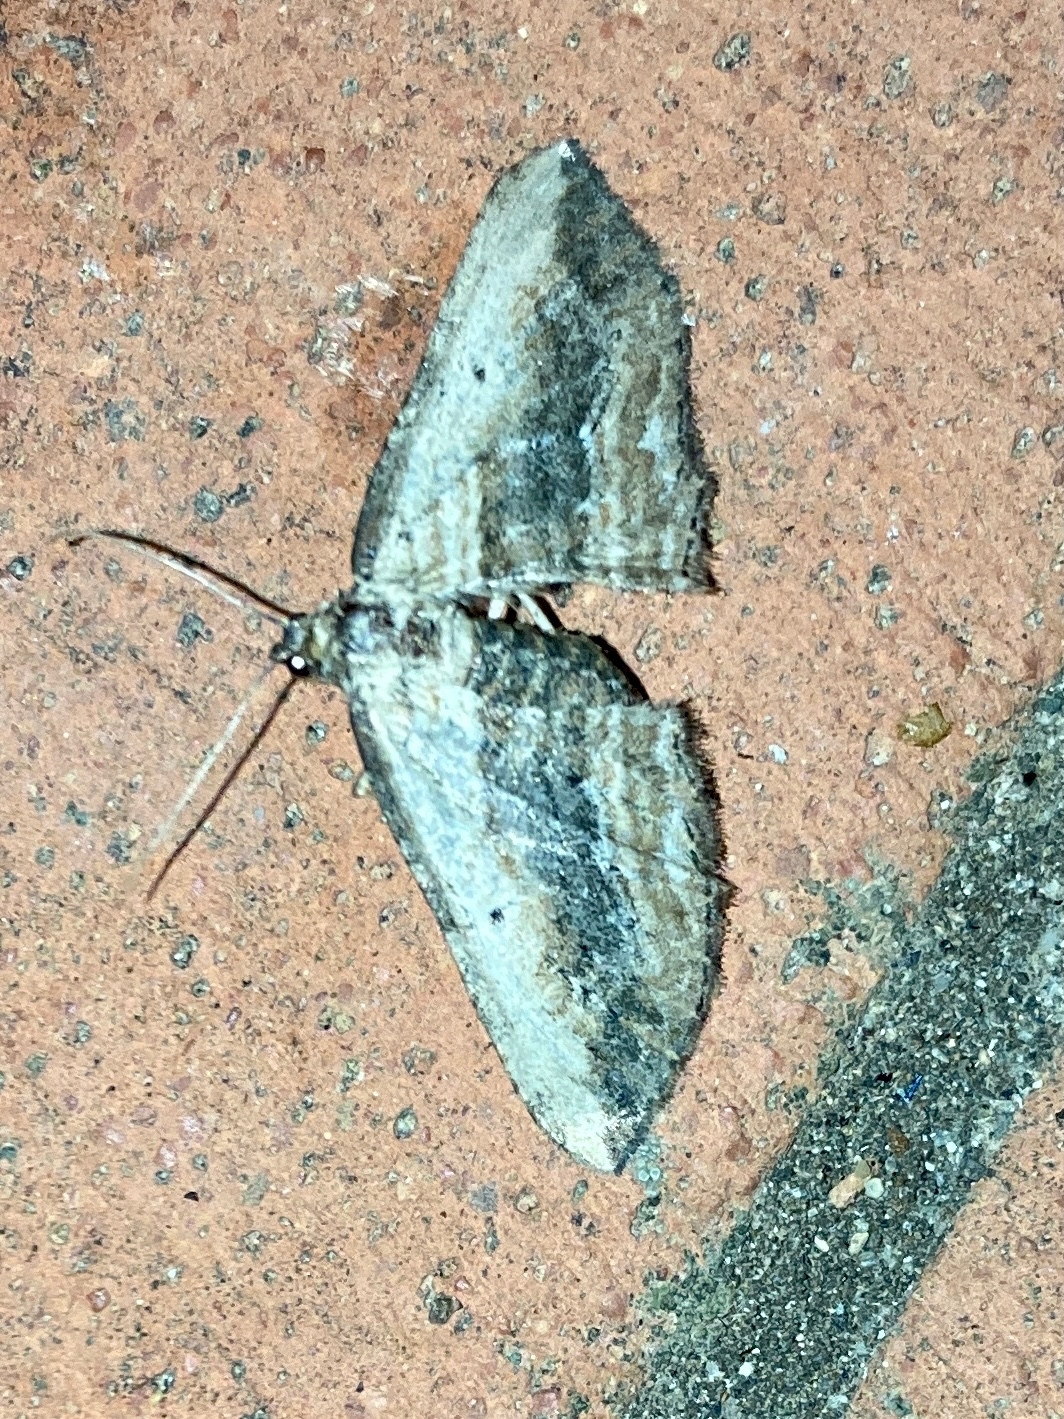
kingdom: Animalia
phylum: Arthropoda
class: Insecta
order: Lepidoptera
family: Geometridae
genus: Horisme
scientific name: Horisme vitalbata
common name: Small waved umber
